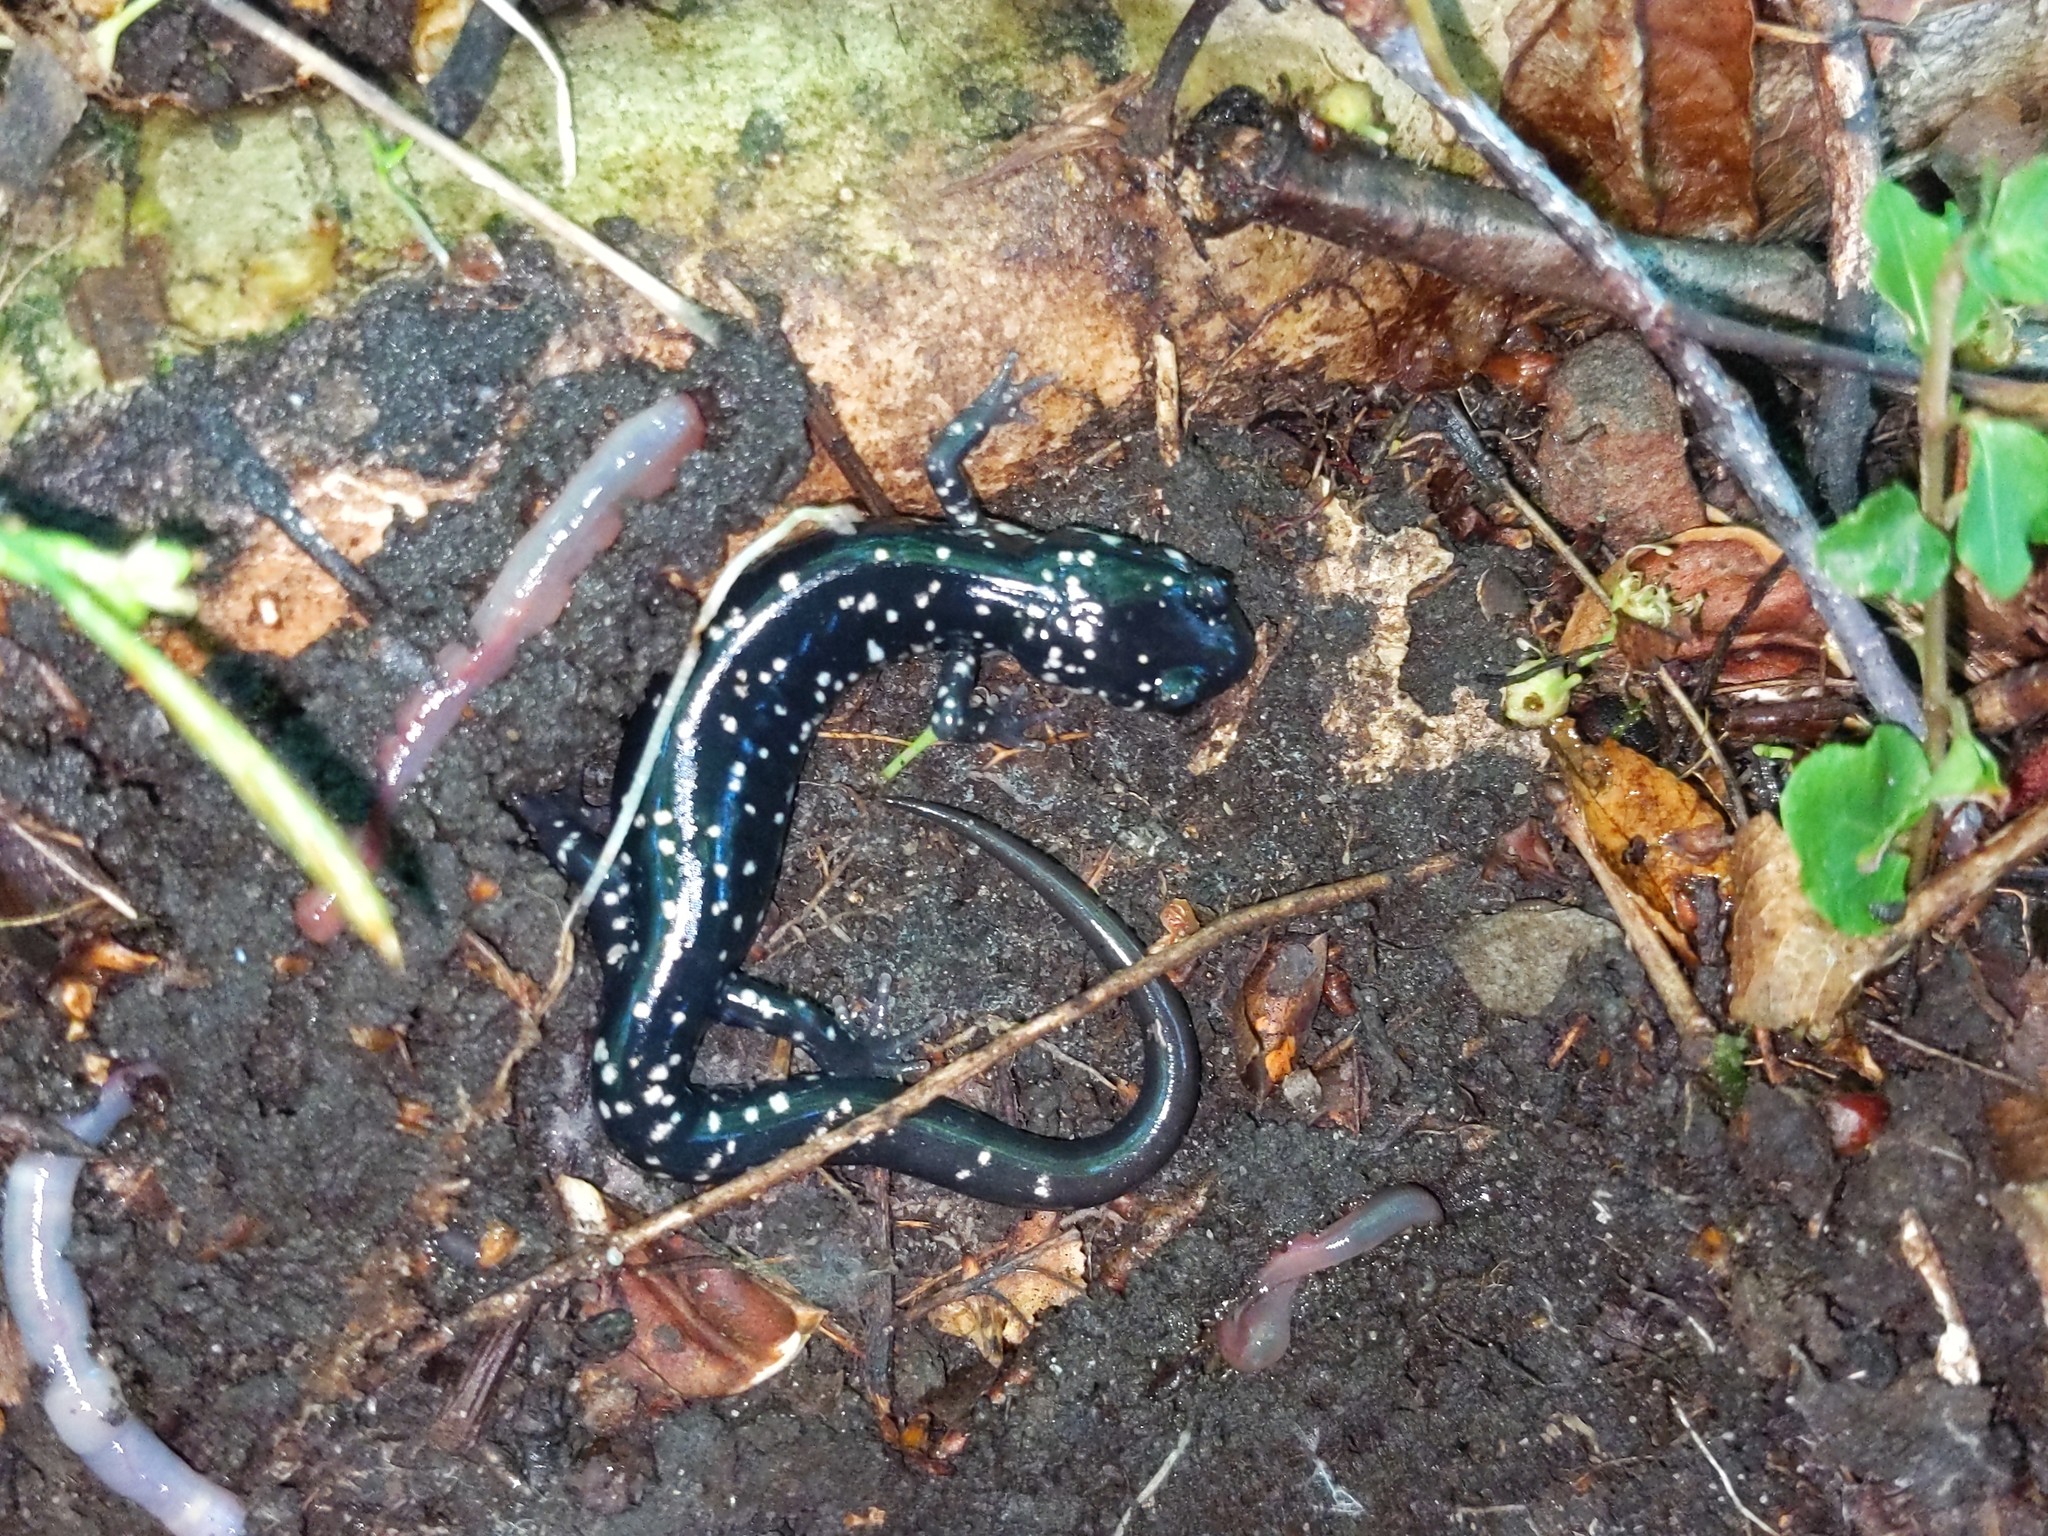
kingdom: Animalia
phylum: Chordata
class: Amphibia
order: Caudata
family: Plethodontidae
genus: Plethodon
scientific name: Plethodon glutinosus
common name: Northern slimy salamander
